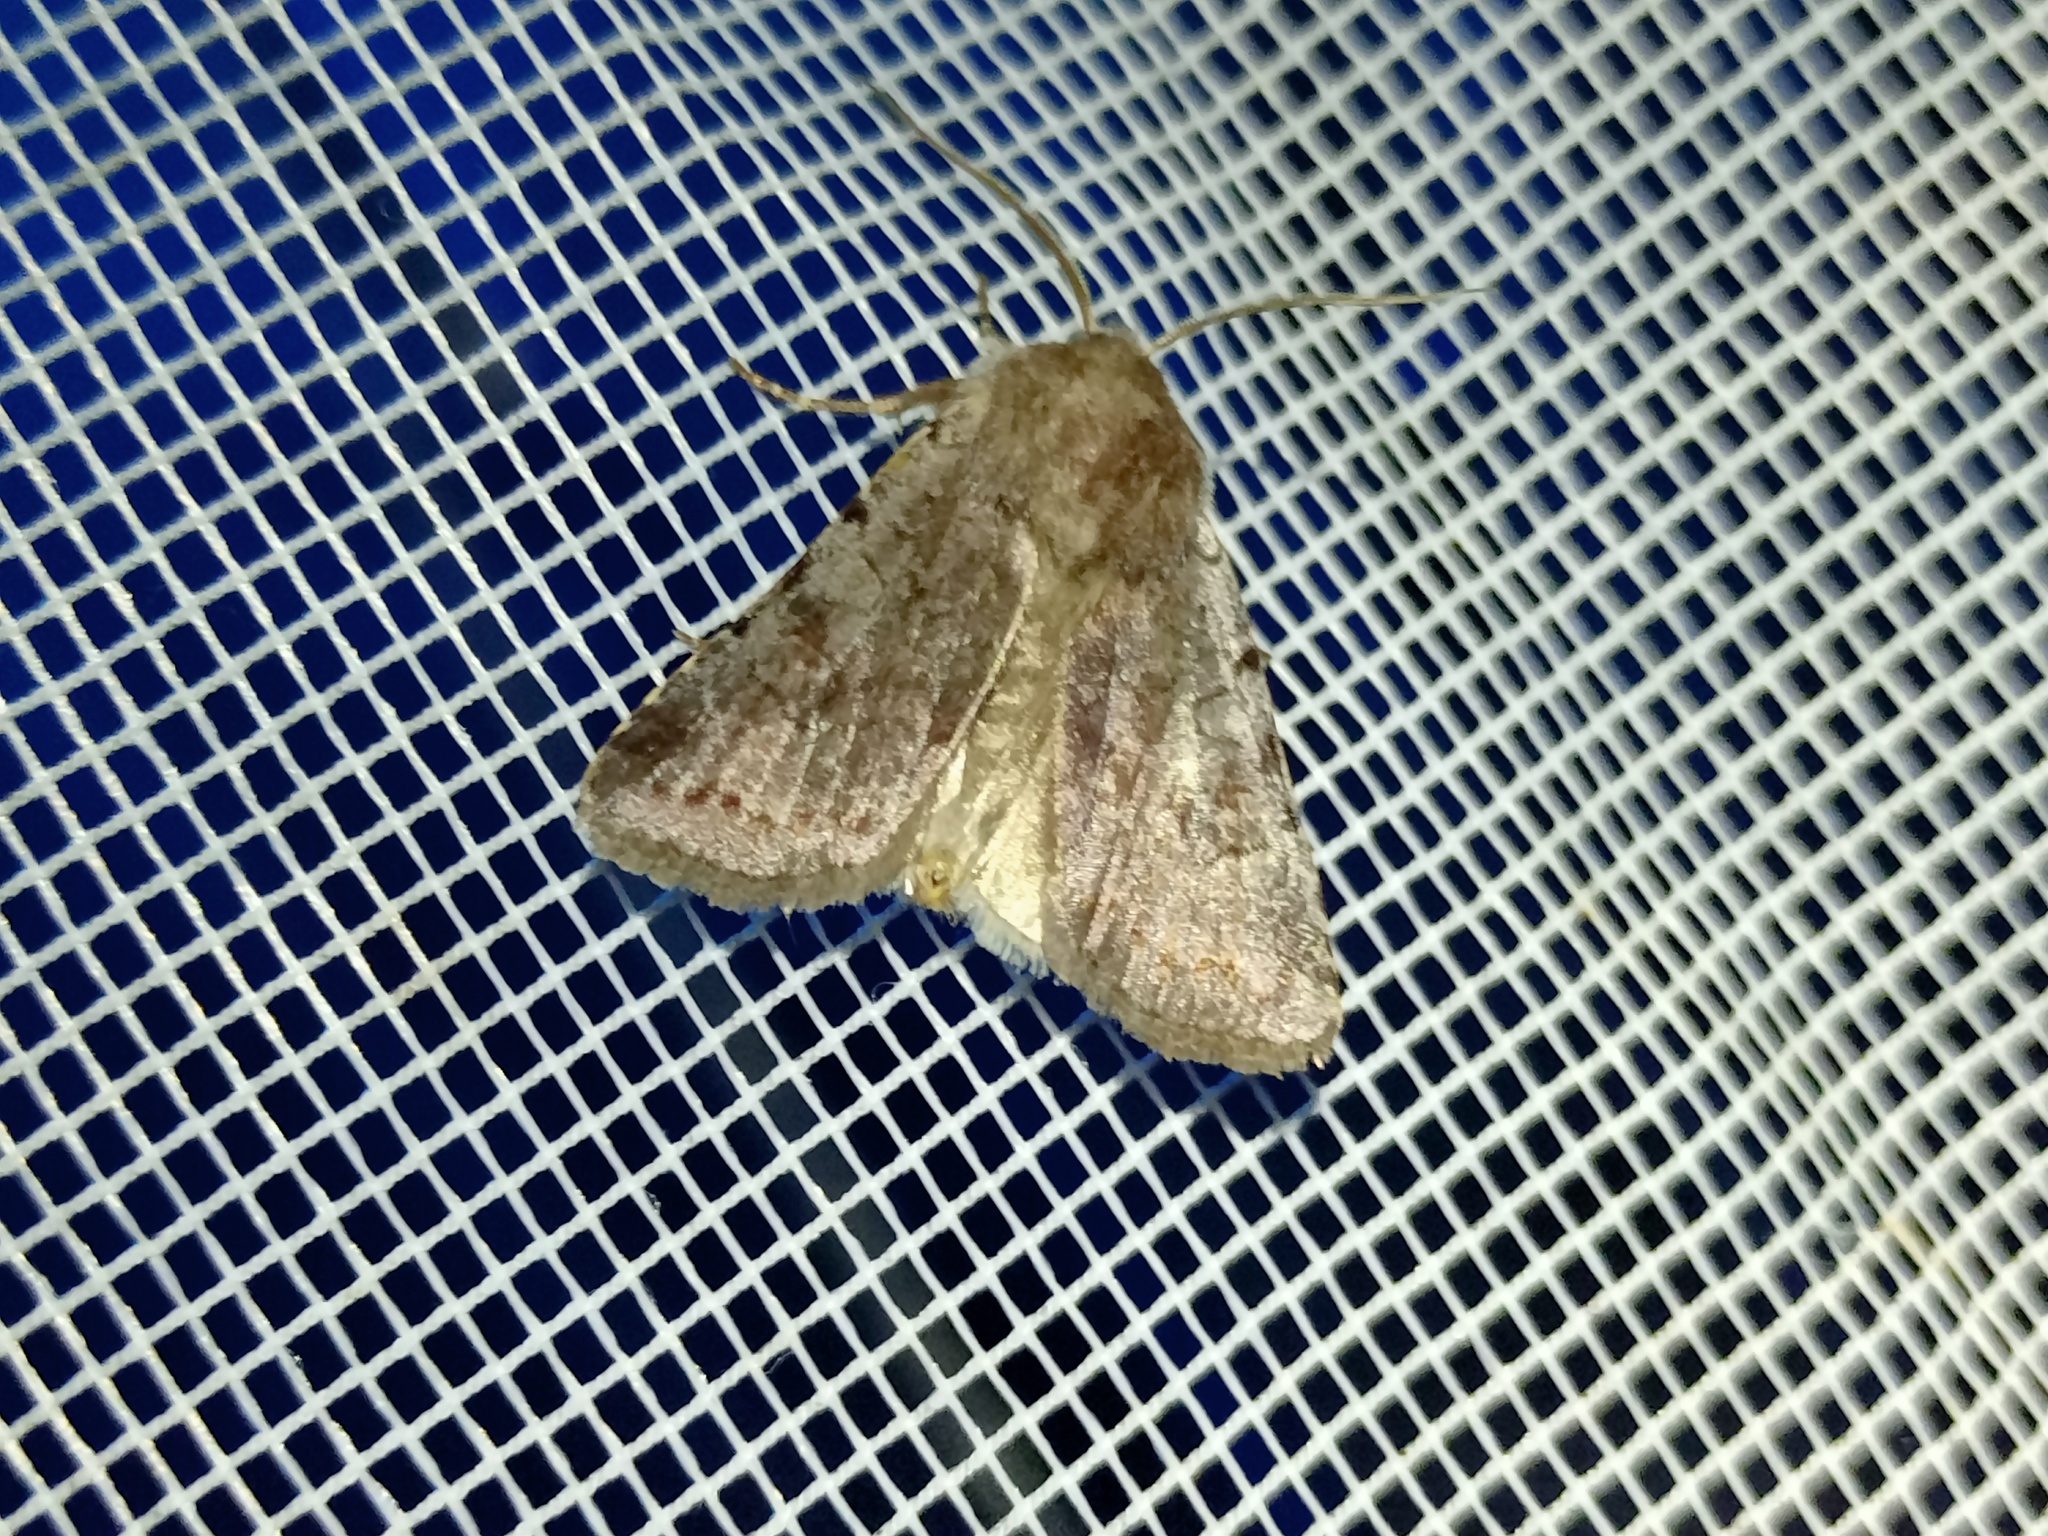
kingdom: Animalia
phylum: Arthropoda
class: Insecta
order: Lepidoptera
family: Noctuidae
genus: Cerastis
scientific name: Cerastis rubricosa
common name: Red chestnut
